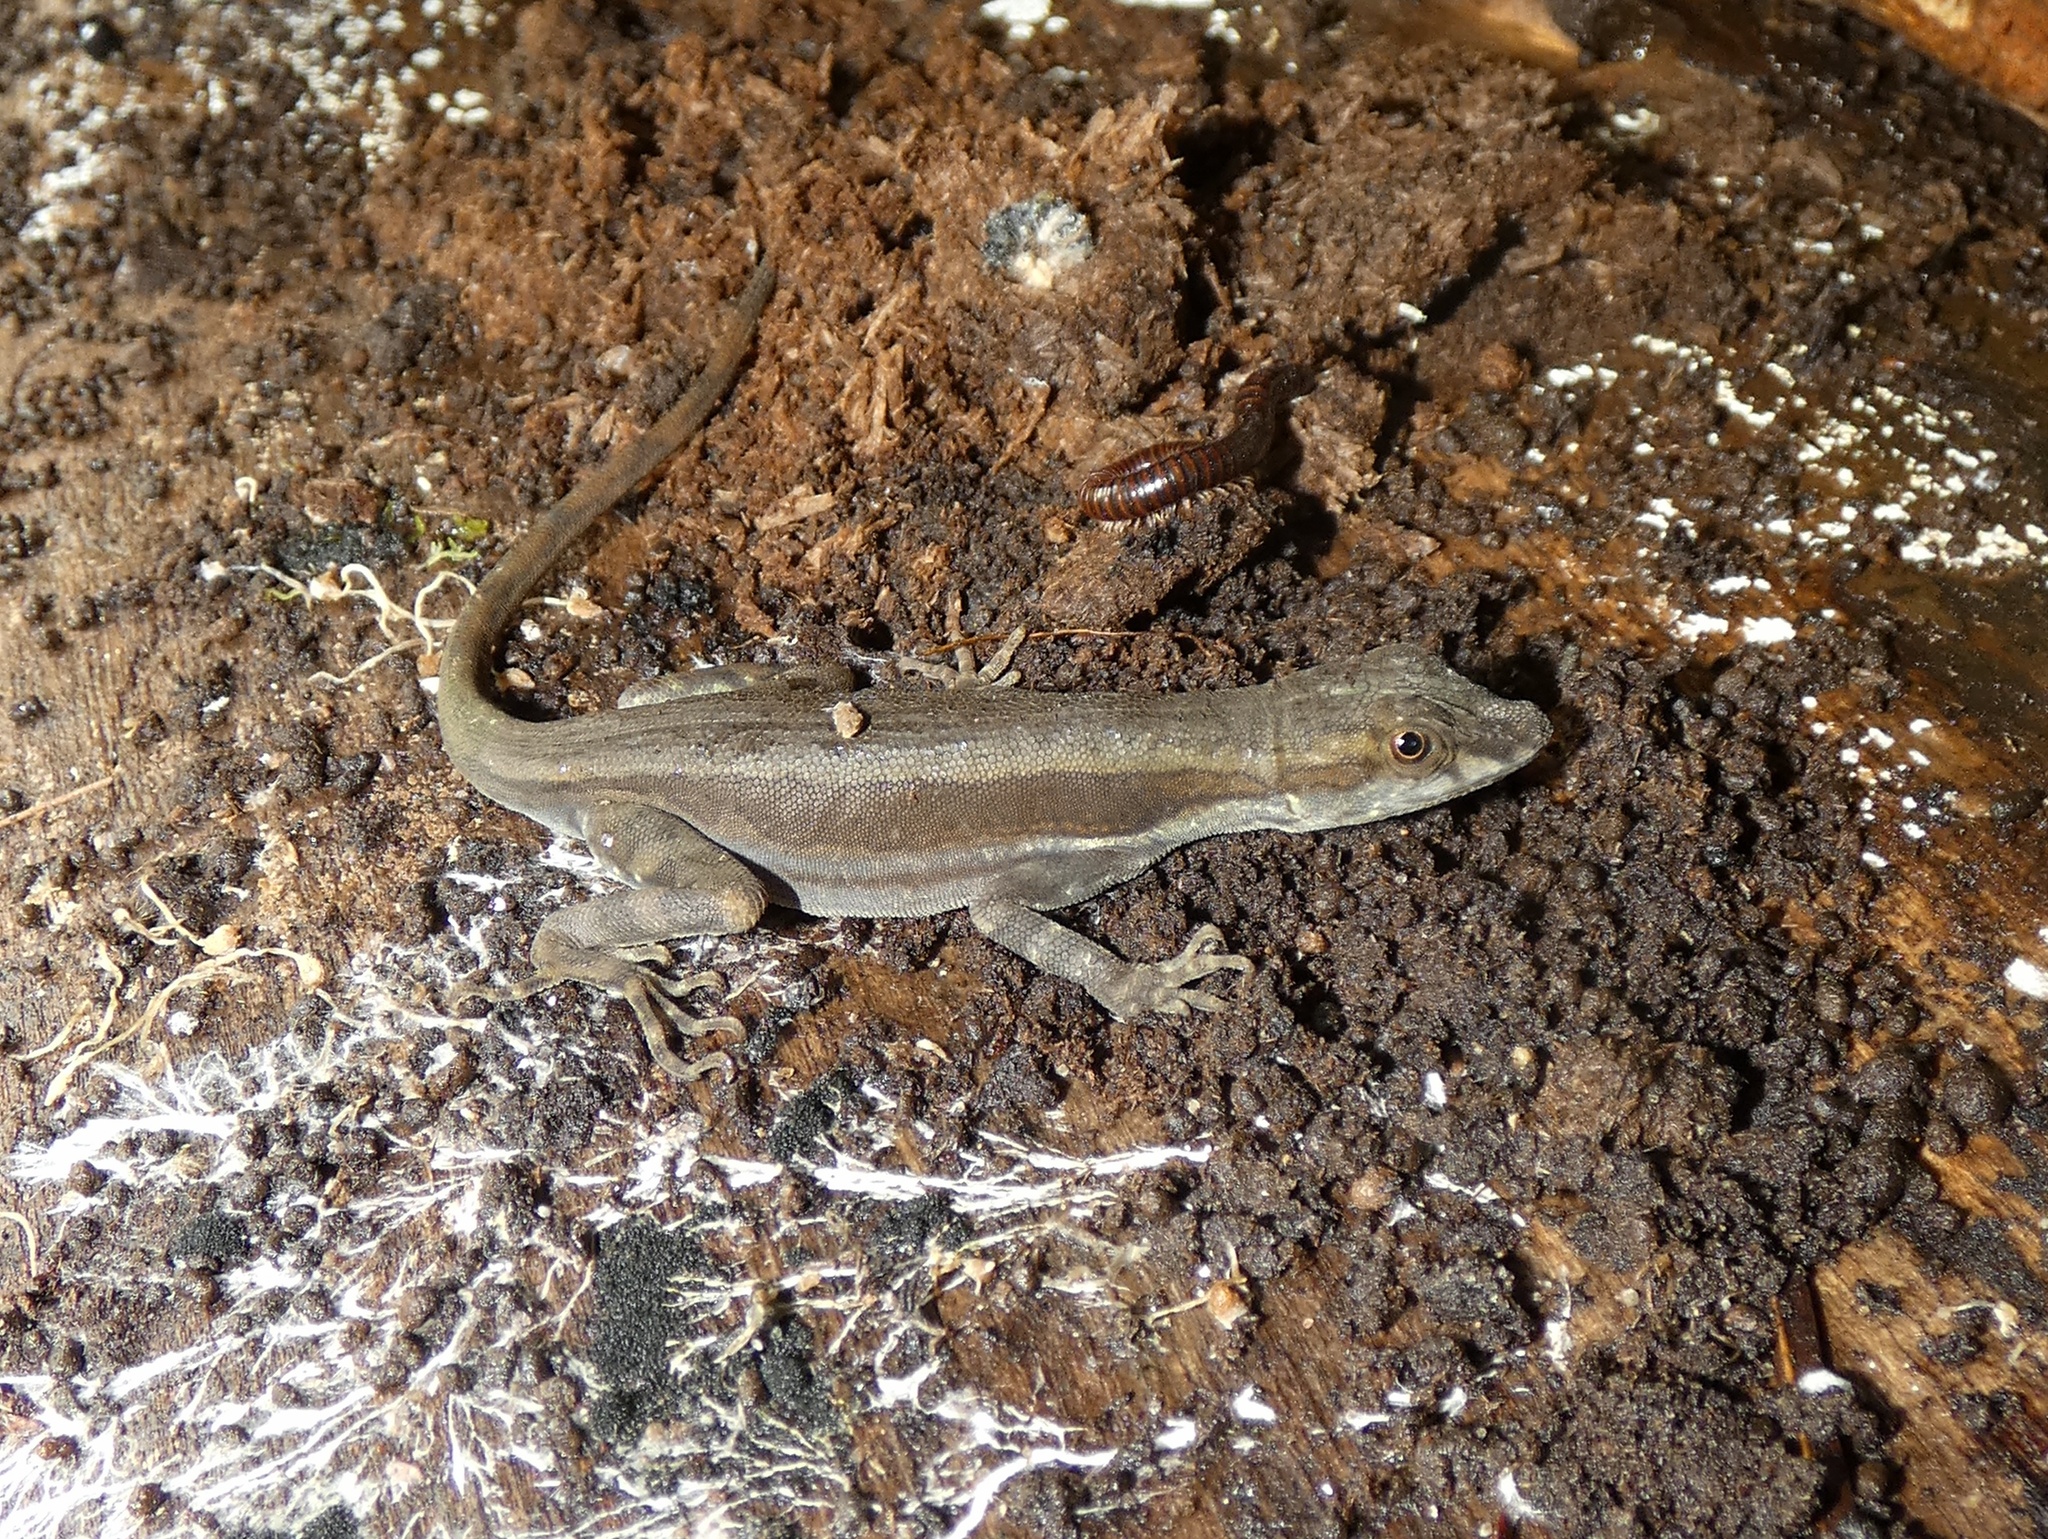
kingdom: Animalia
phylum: Chordata
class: Squamata
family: Dactyloidae
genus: Anolis
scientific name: Anolis lionotus
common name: Lion anole
